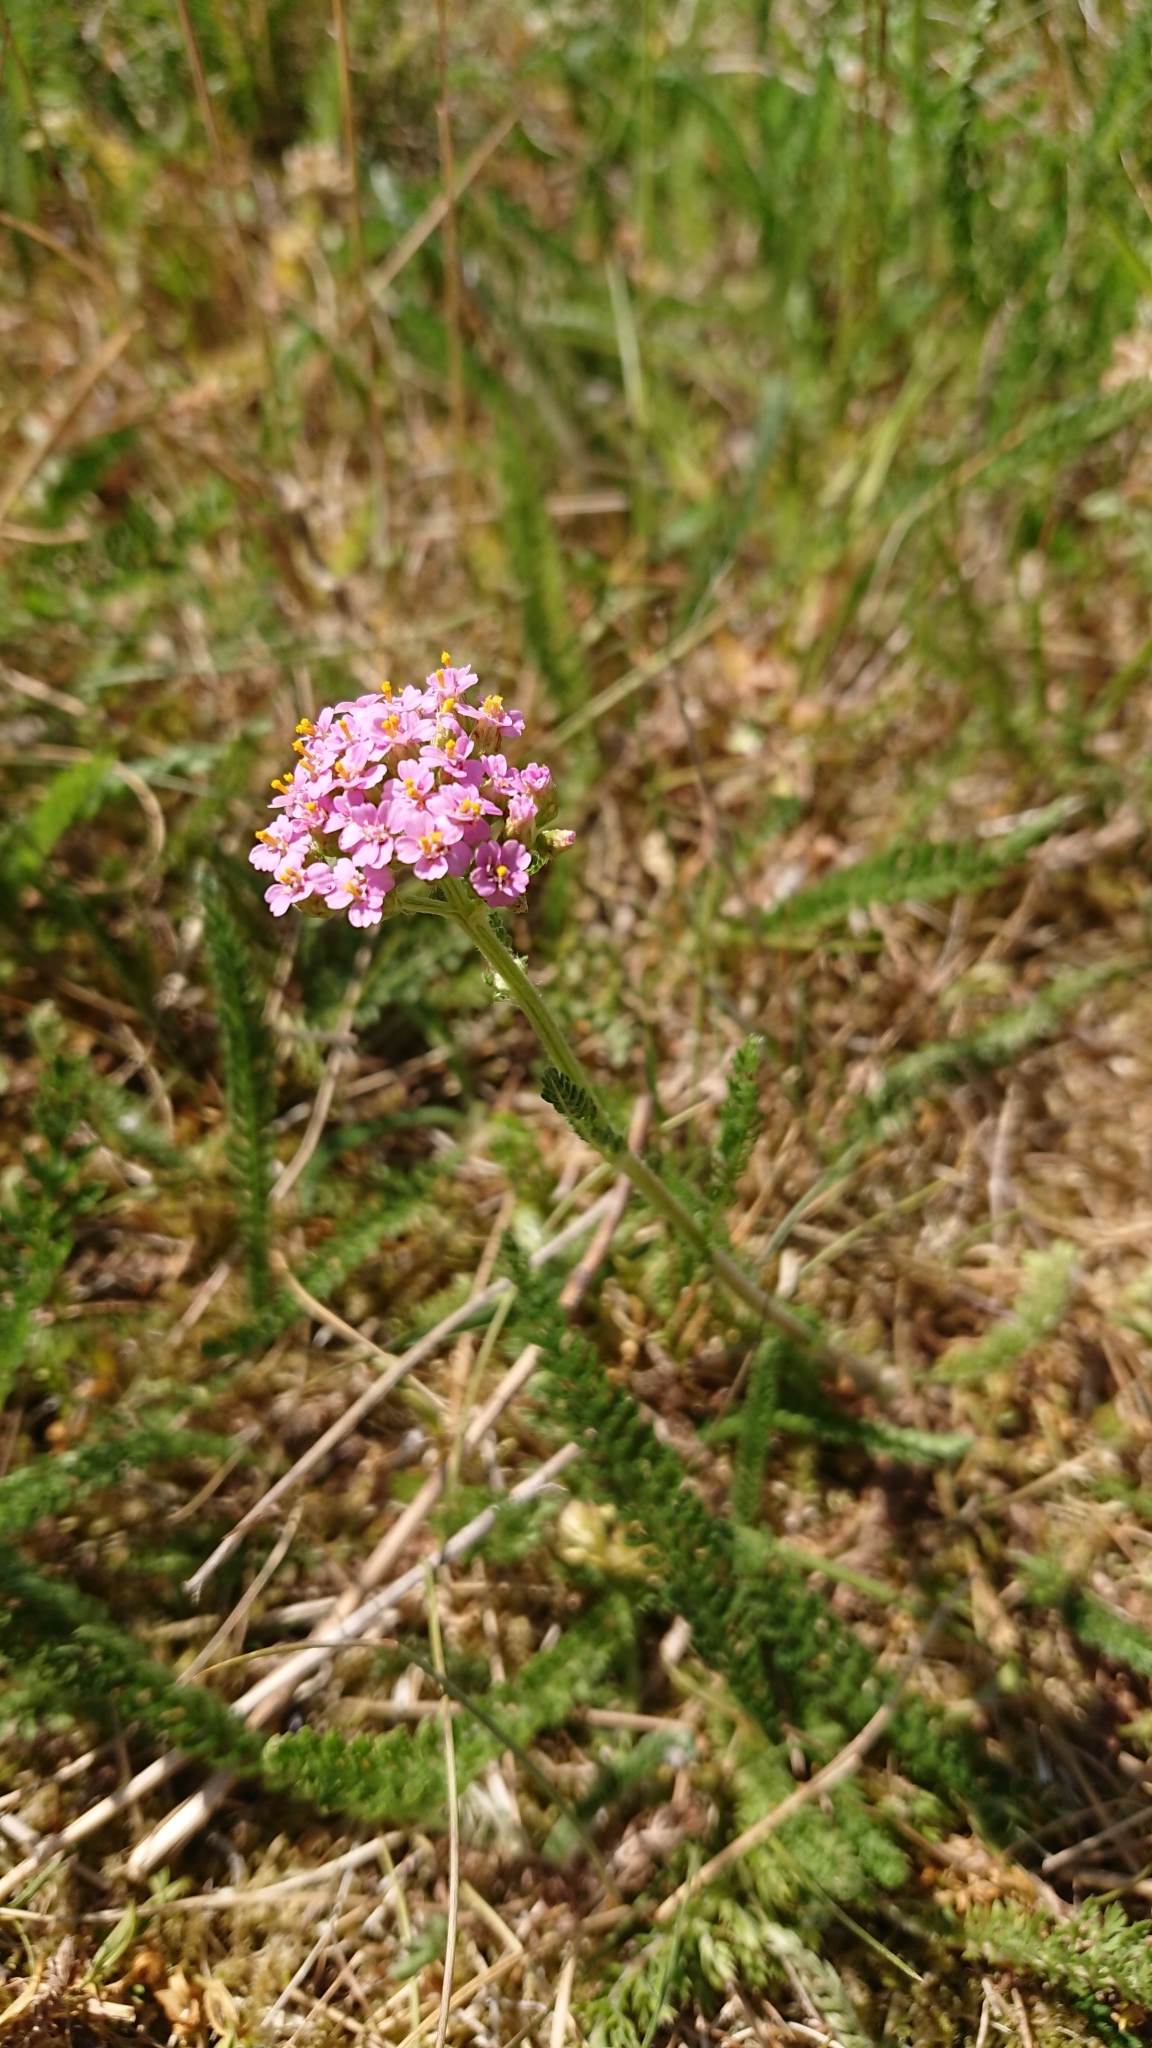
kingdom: Plantae
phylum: Tracheophyta
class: Magnoliopsida
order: Asterales
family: Asteraceae
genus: Achillea
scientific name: Achillea millefolium
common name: Yarrow
